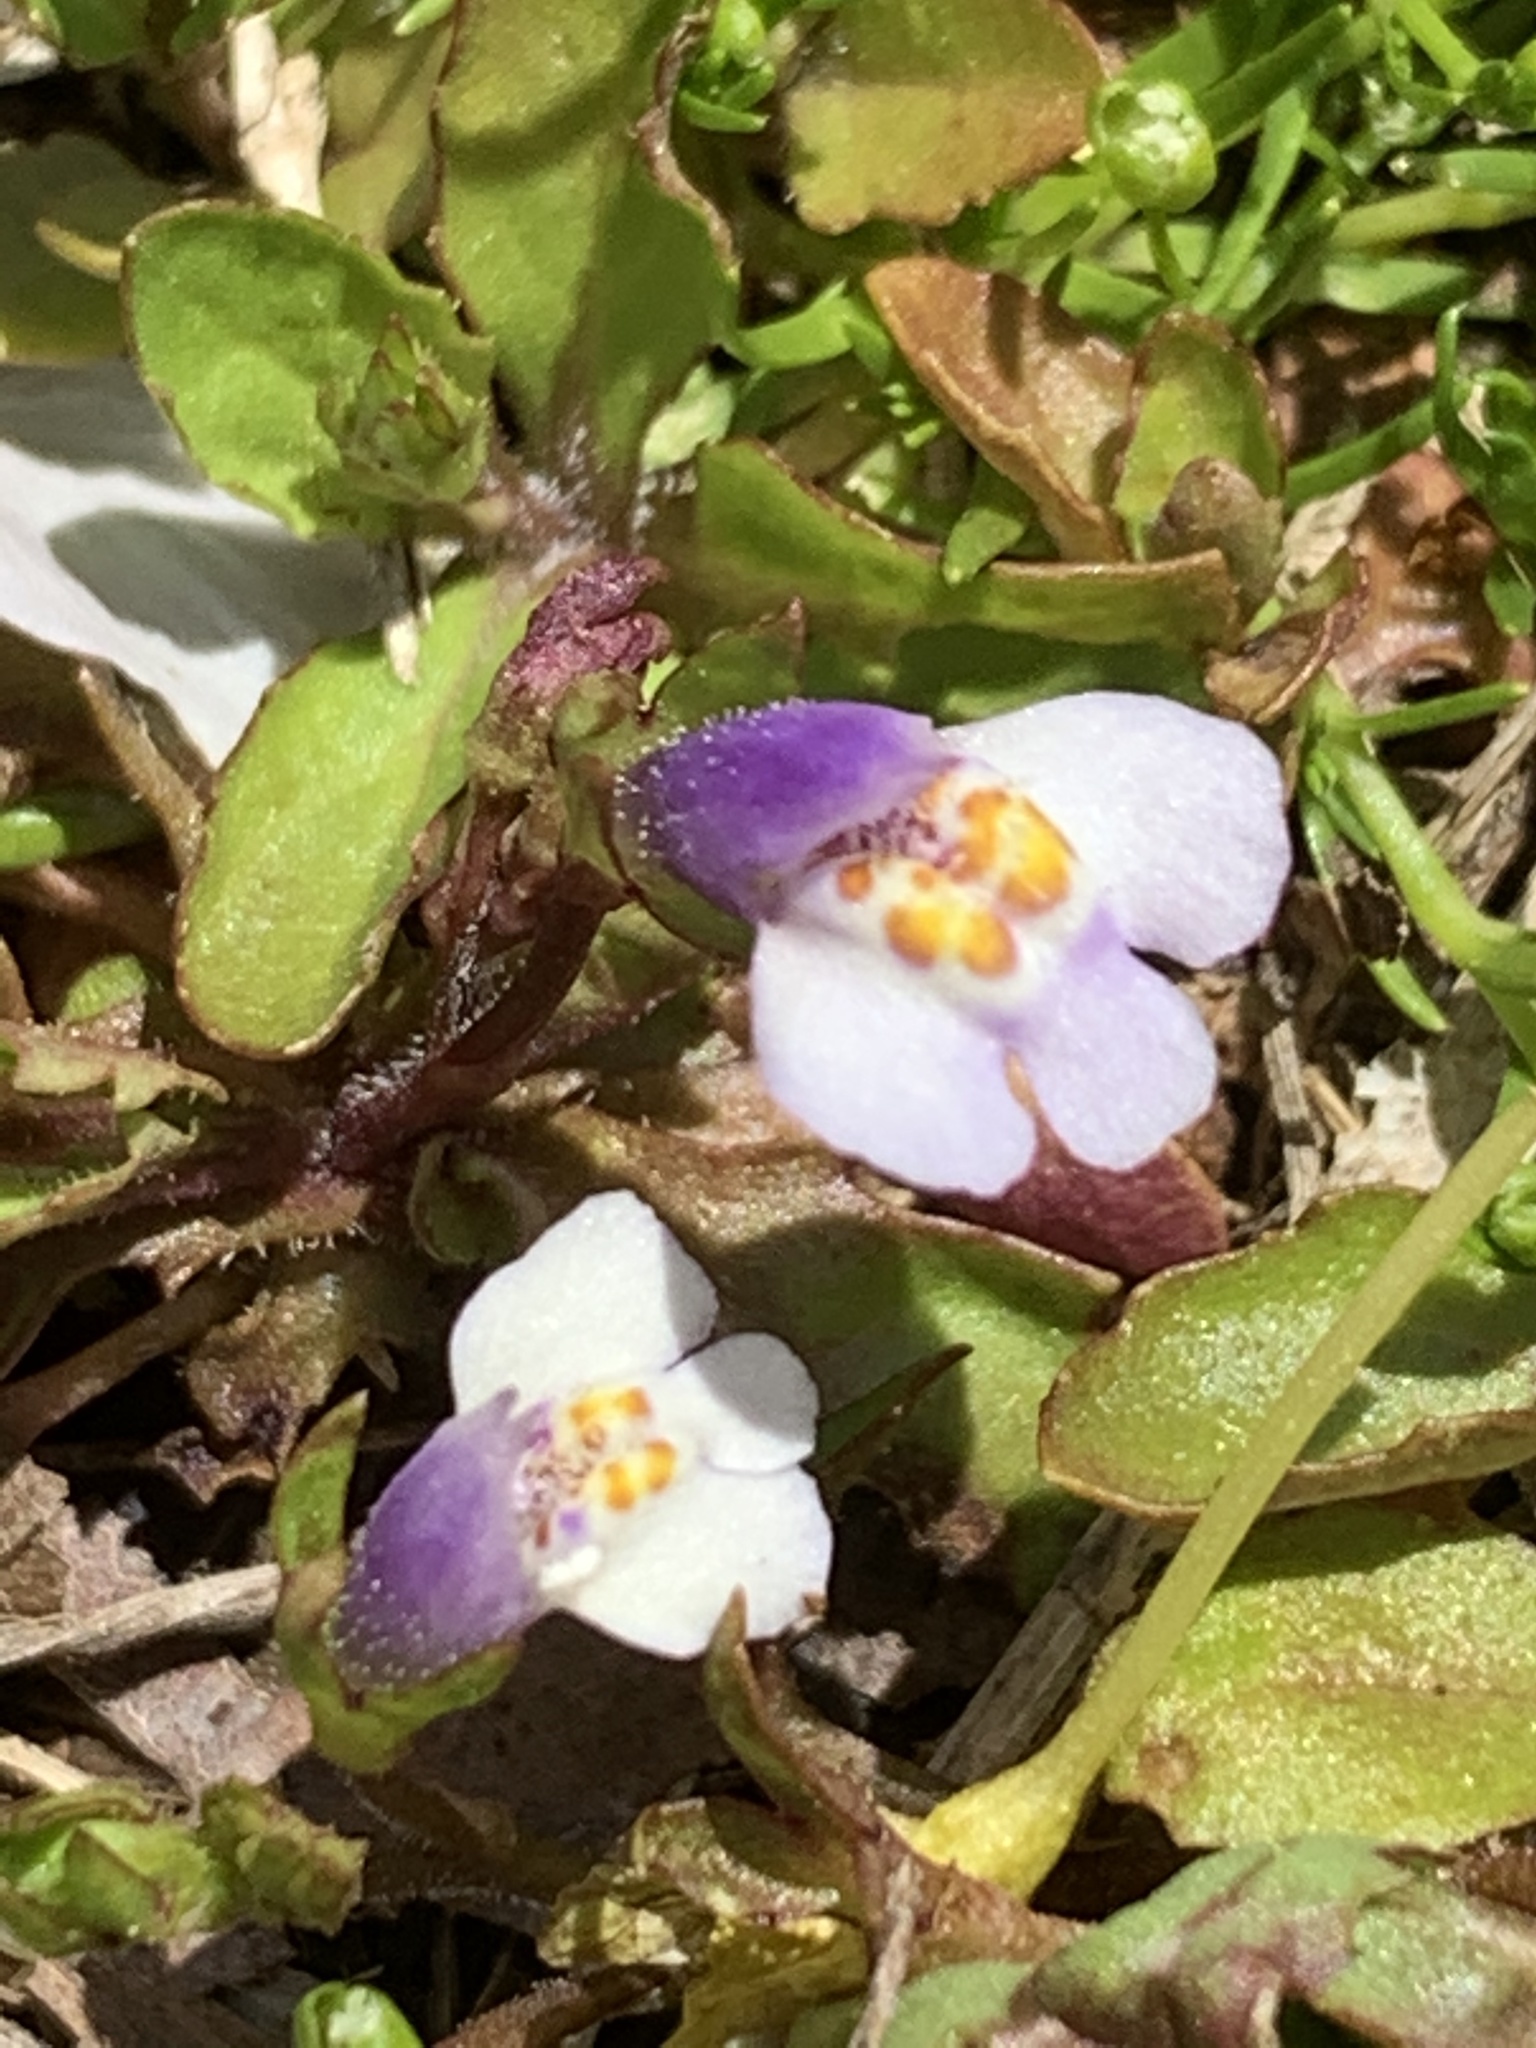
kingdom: Plantae
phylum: Tracheophyta
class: Magnoliopsida
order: Lamiales
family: Mazaceae
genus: Mazus
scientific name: Mazus pumilus
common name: Japanese mazus
